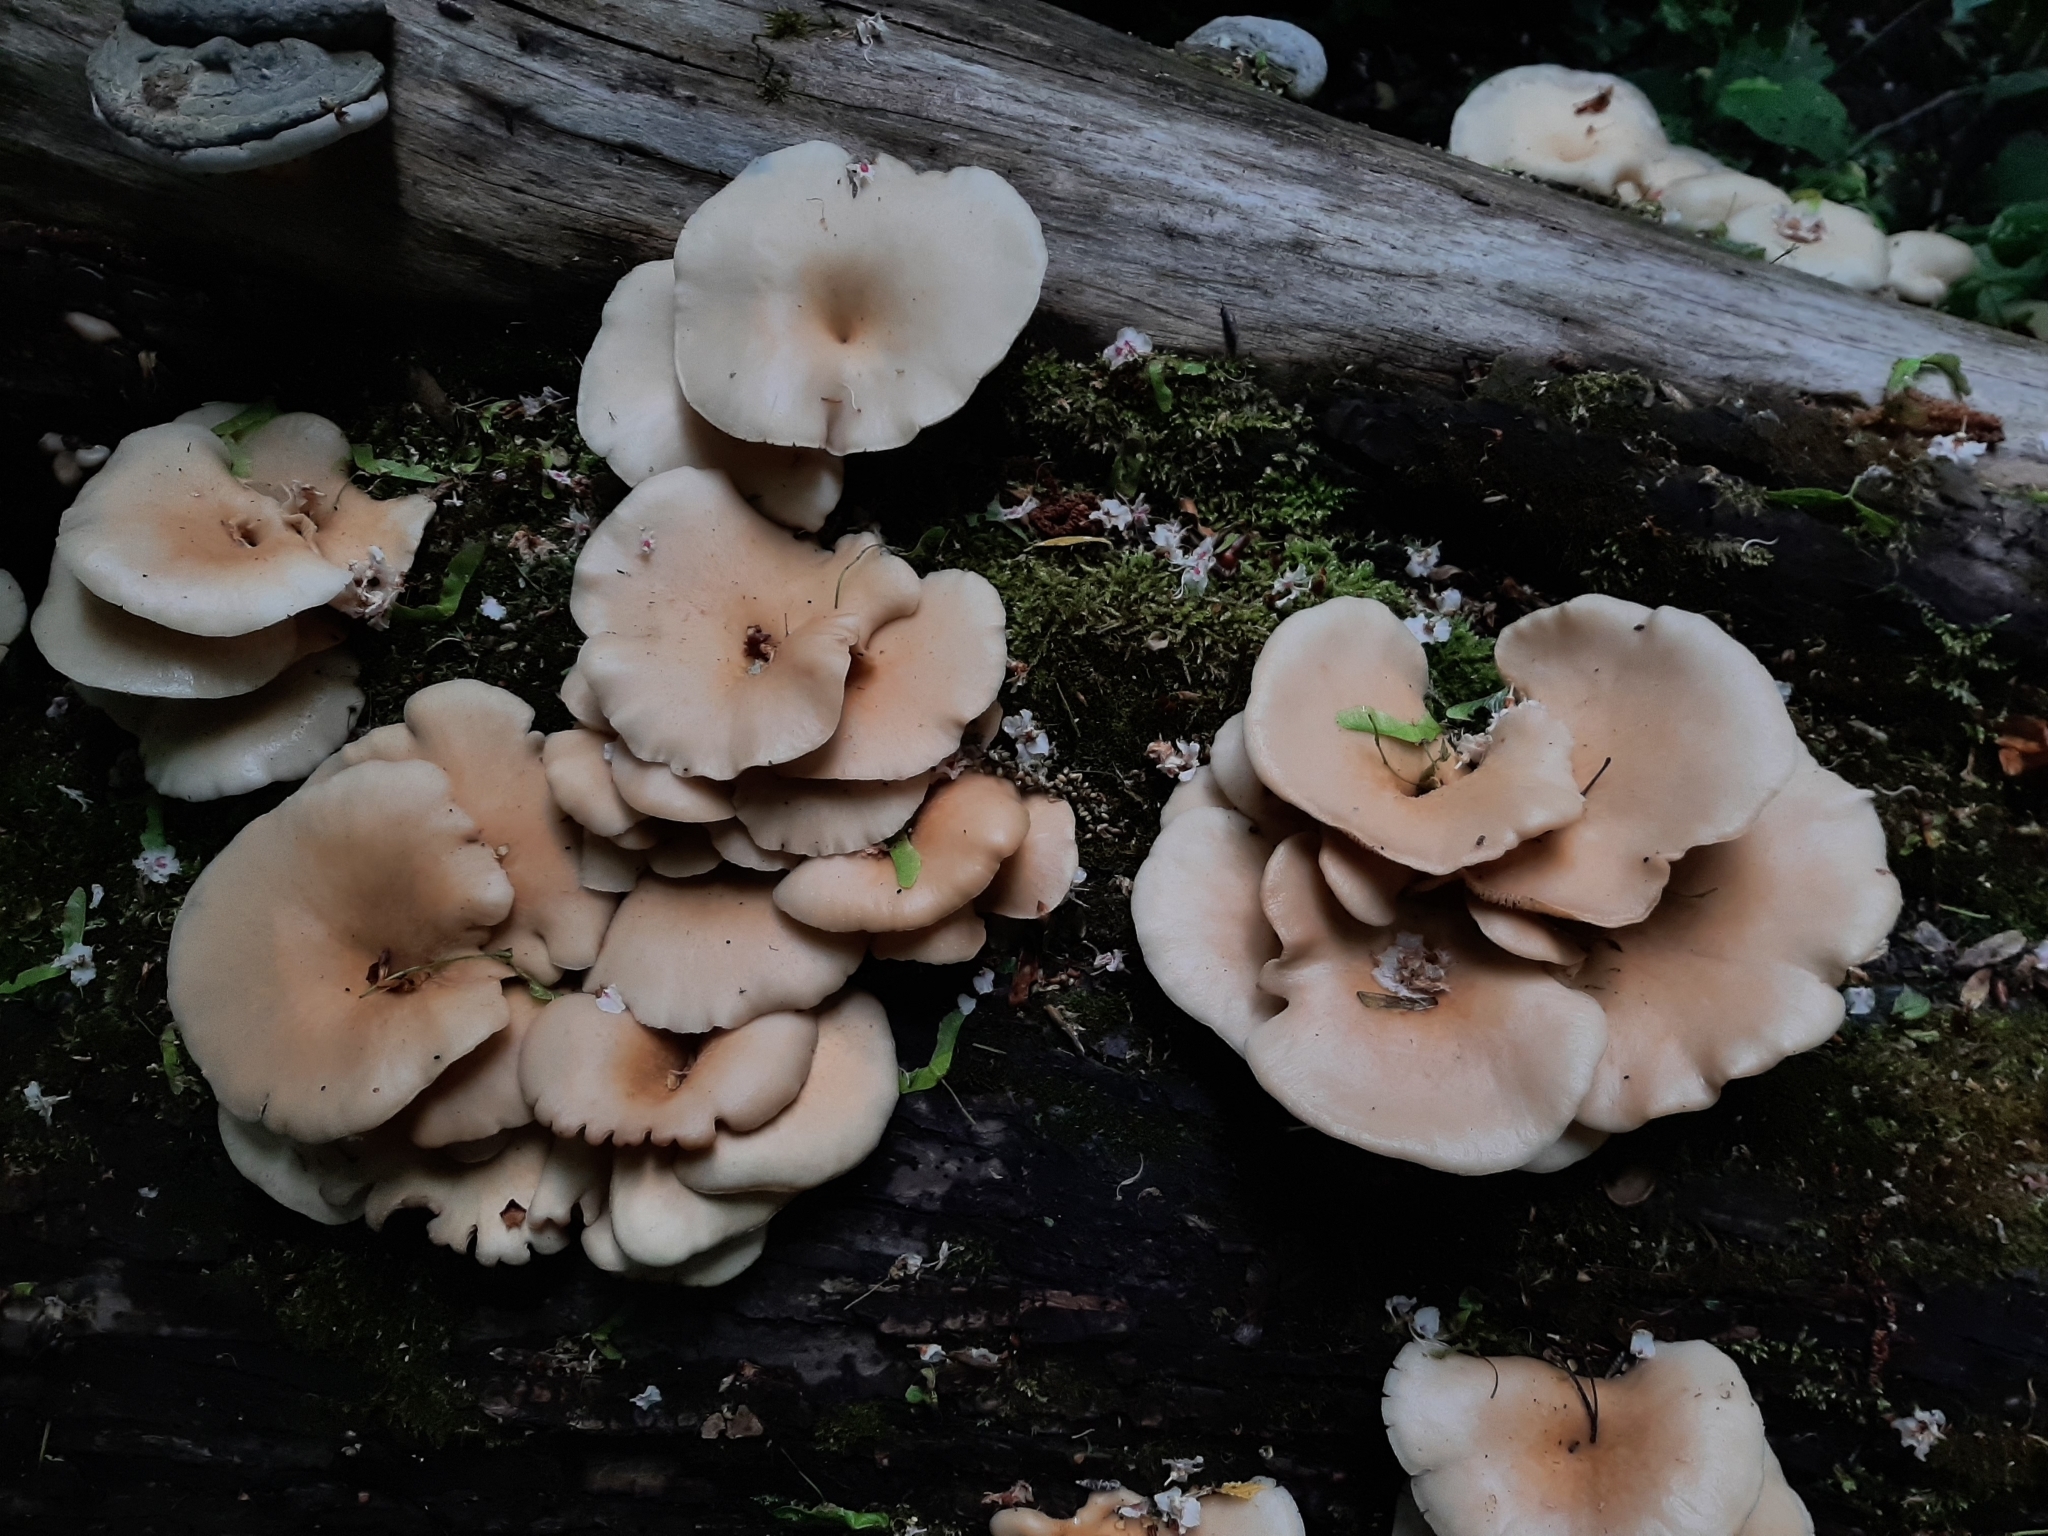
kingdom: Fungi
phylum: Basidiomycota
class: Agaricomycetes
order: Agaricales
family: Pleurotaceae
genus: Pleurotus
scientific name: Pleurotus pulmonarius
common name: Pale oyster
